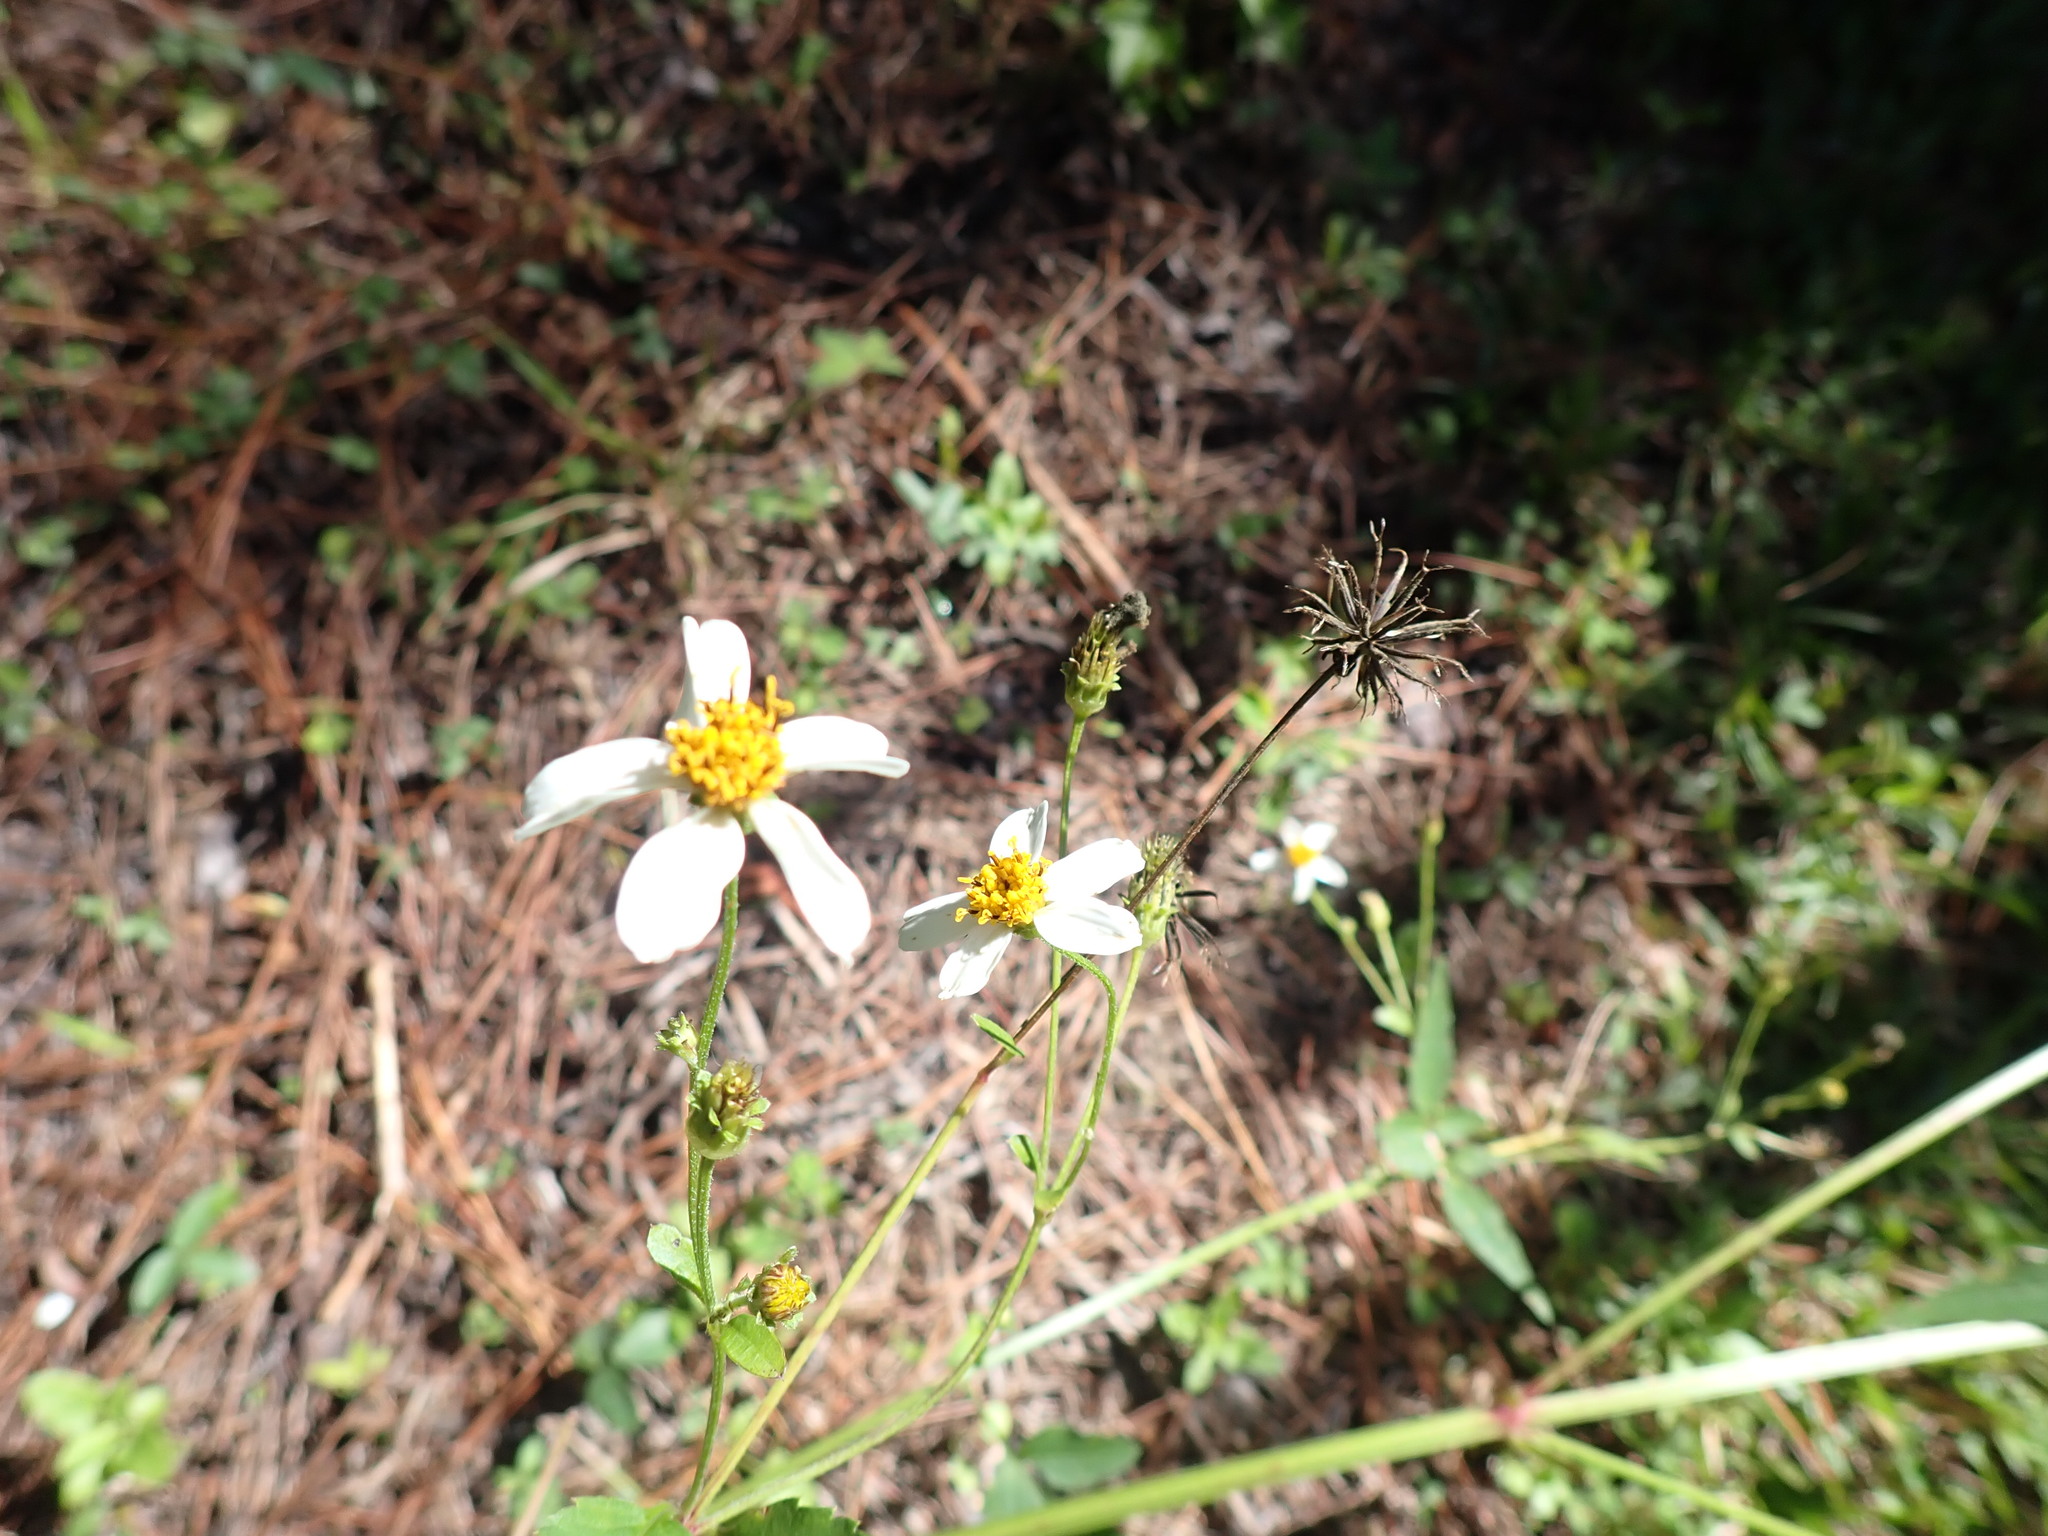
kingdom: Plantae
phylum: Tracheophyta
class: Magnoliopsida
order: Asterales
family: Asteraceae
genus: Bidens
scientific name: Bidens alba
